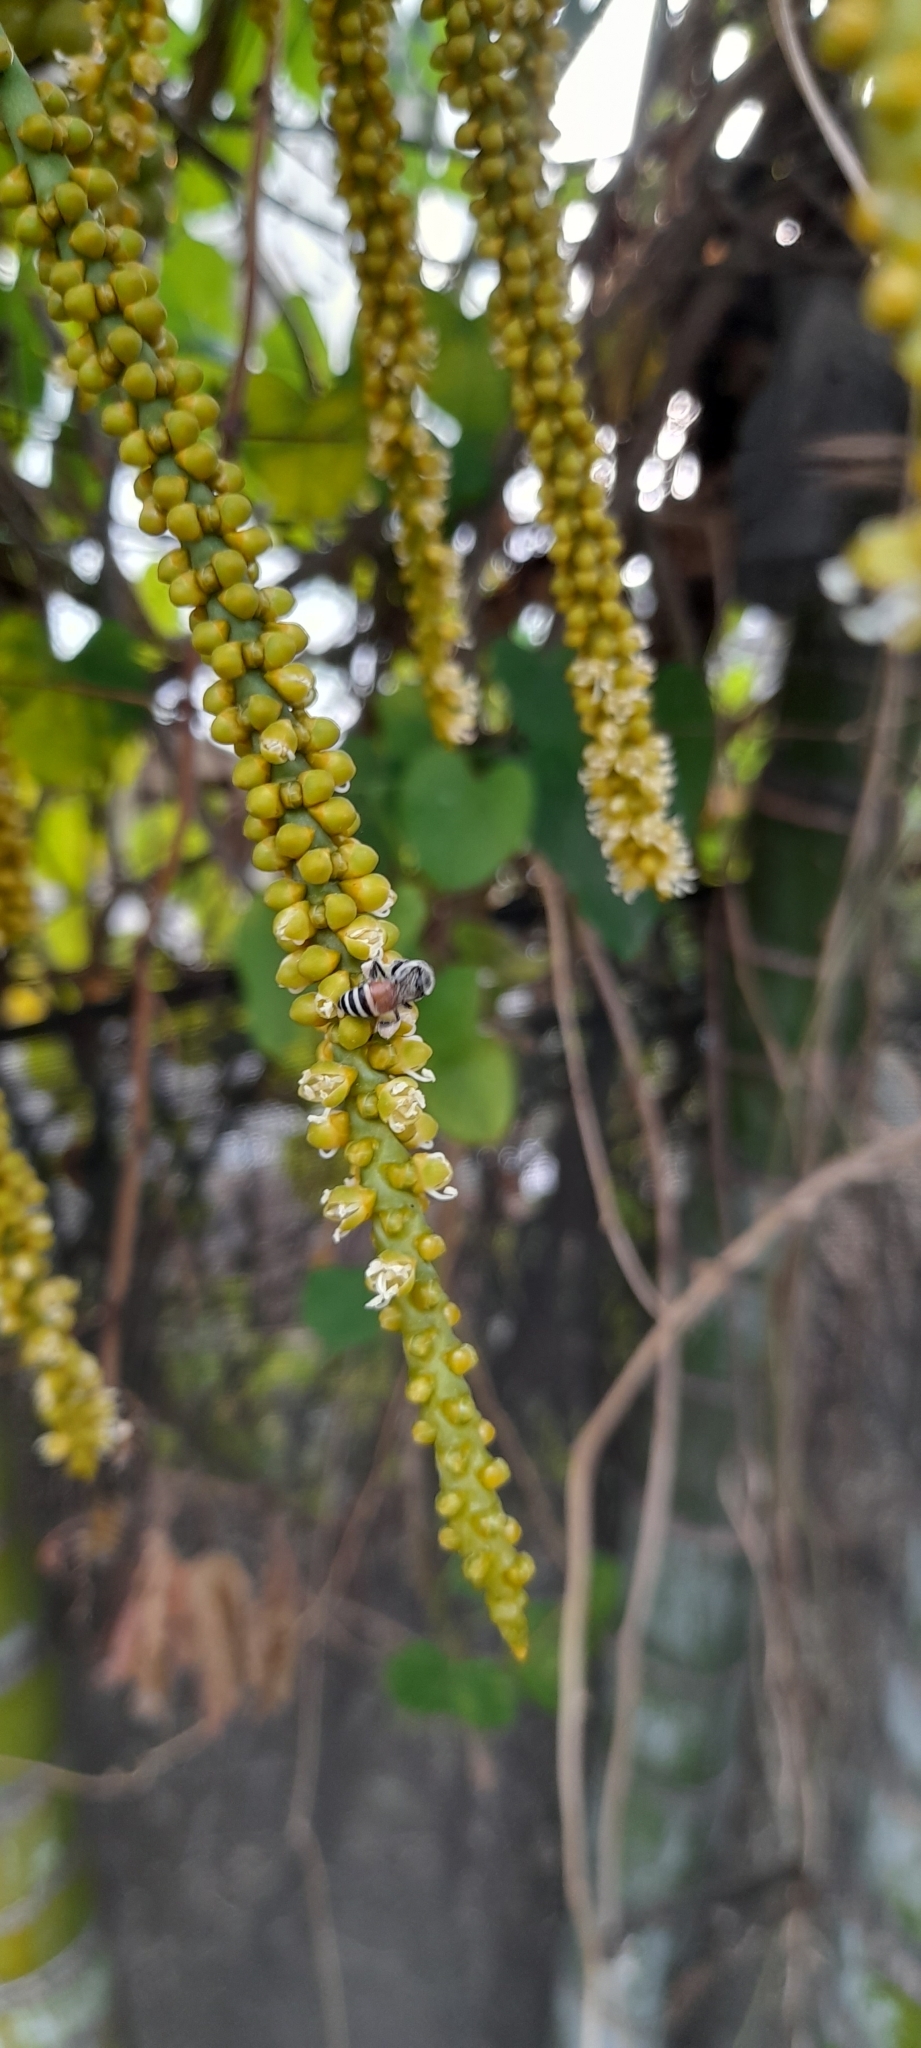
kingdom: Animalia
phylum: Arthropoda
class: Insecta
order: Hymenoptera
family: Apidae
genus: Apis
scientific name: Apis florea
